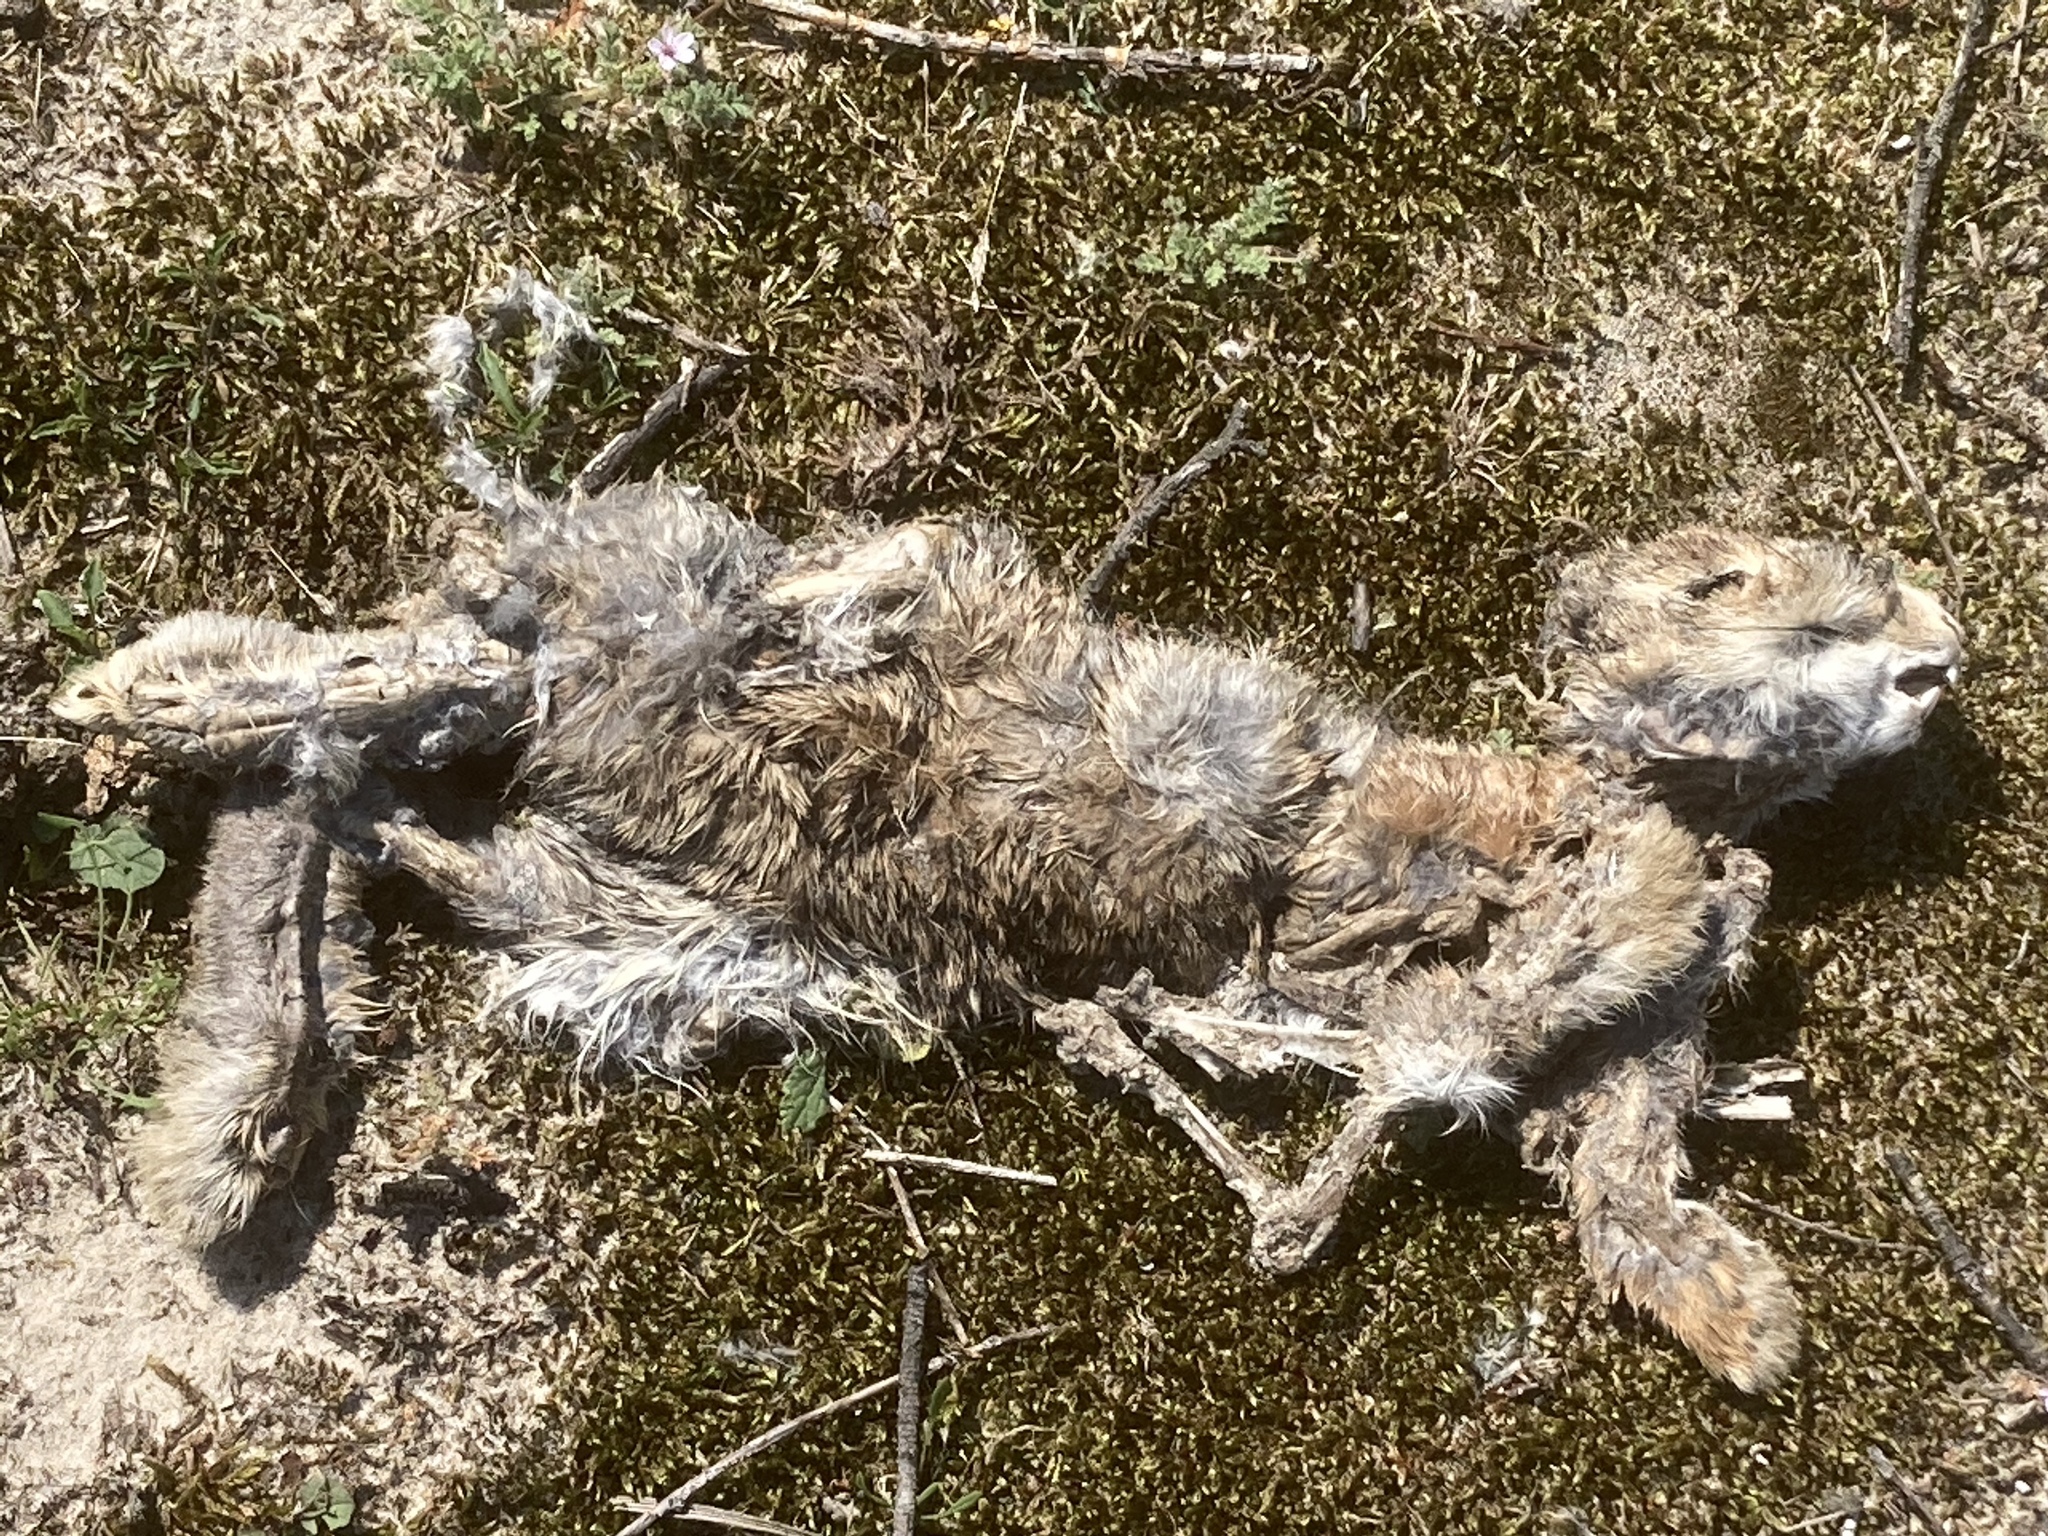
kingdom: Animalia
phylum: Chordata
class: Mammalia
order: Lagomorpha
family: Leporidae
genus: Lepus
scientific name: Lepus europaeus
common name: European hare
